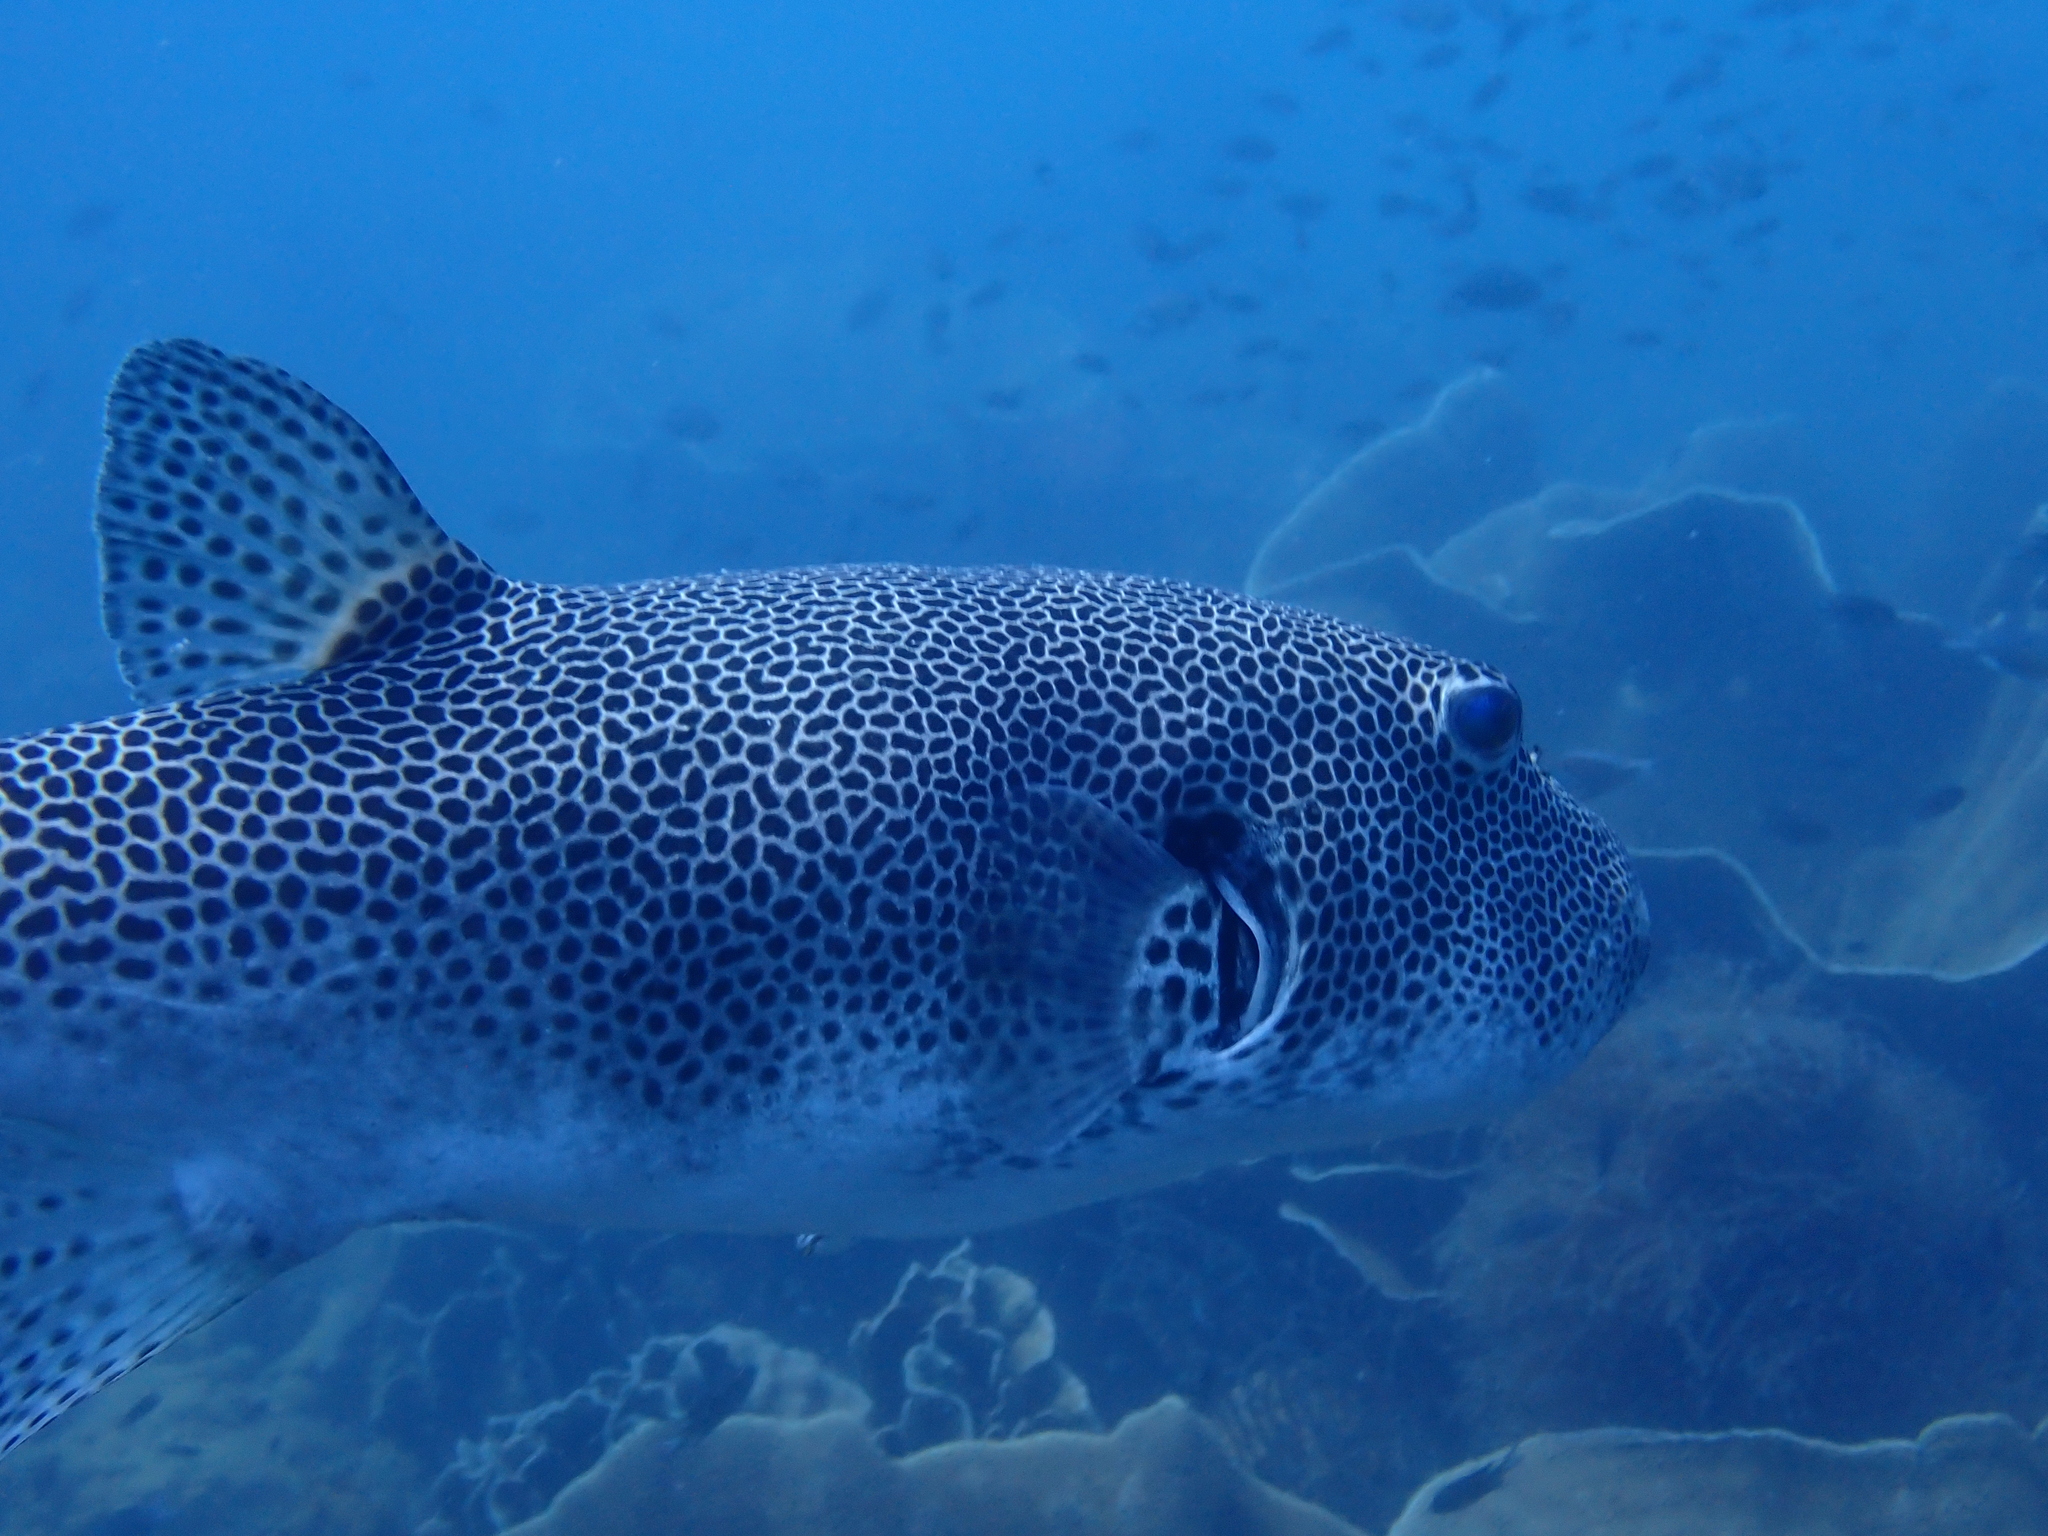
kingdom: Animalia
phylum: Chordata
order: Tetraodontiformes
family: Tetraodontidae
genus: Arothron
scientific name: Arothron stellatus
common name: Star blaasop
